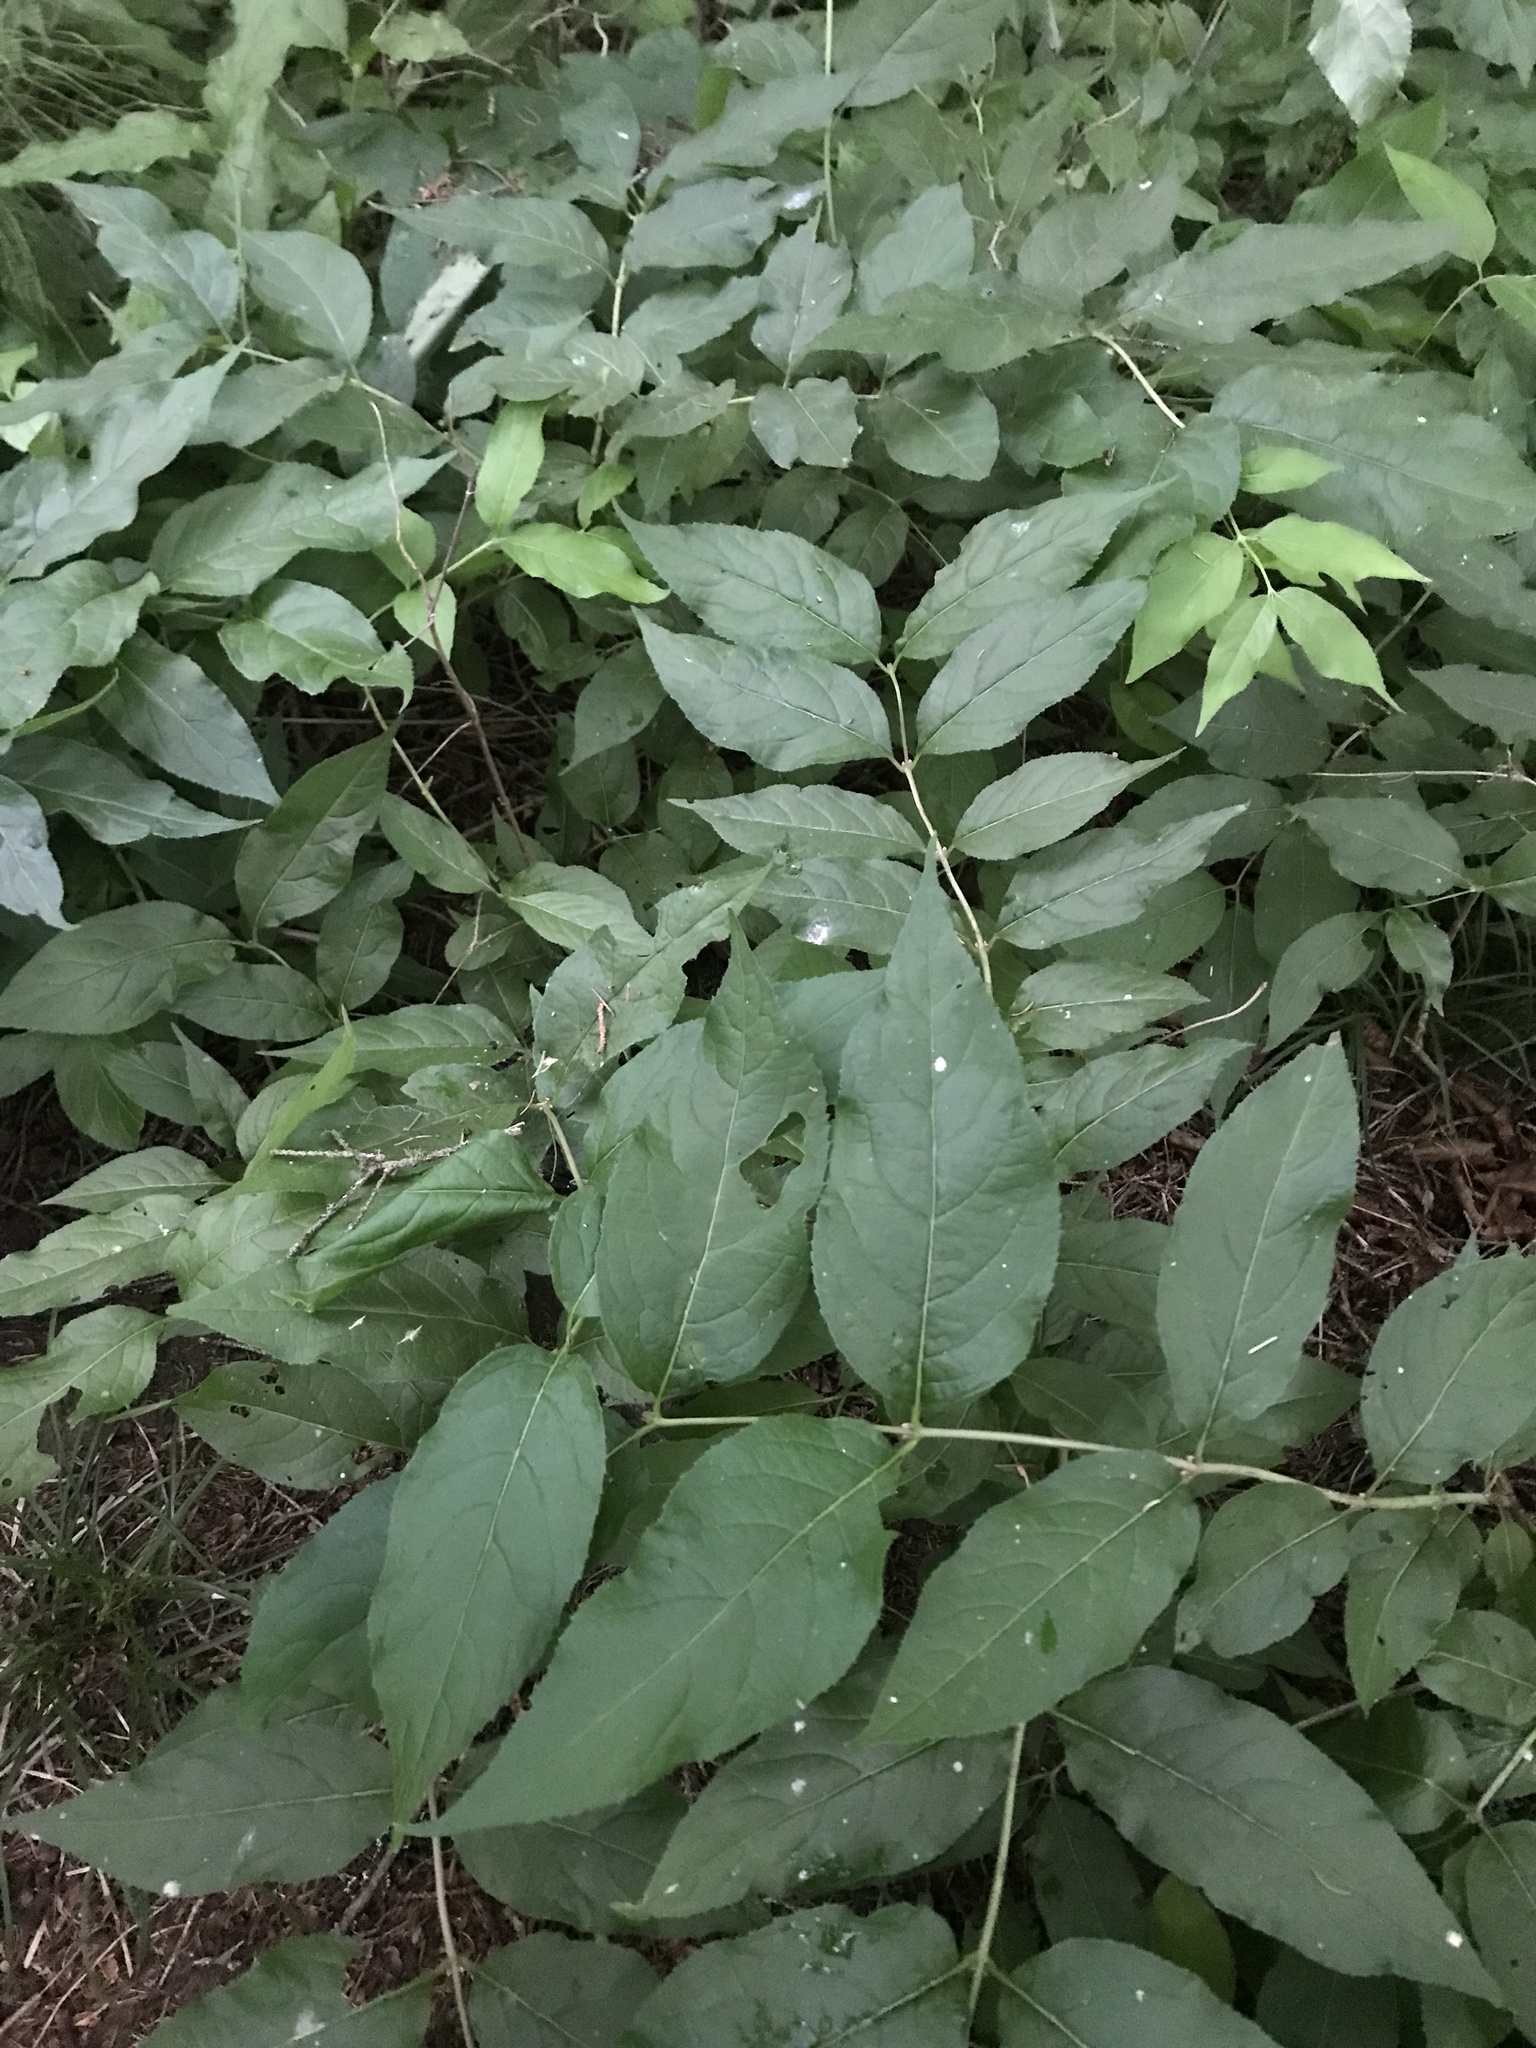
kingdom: Plantae
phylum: Tracheophyta
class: Magnoliopsida
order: Dipsacales
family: Caprifoliaceae
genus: Diervilla
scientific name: Diervilla lonicera
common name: Bush-honeysuckle
